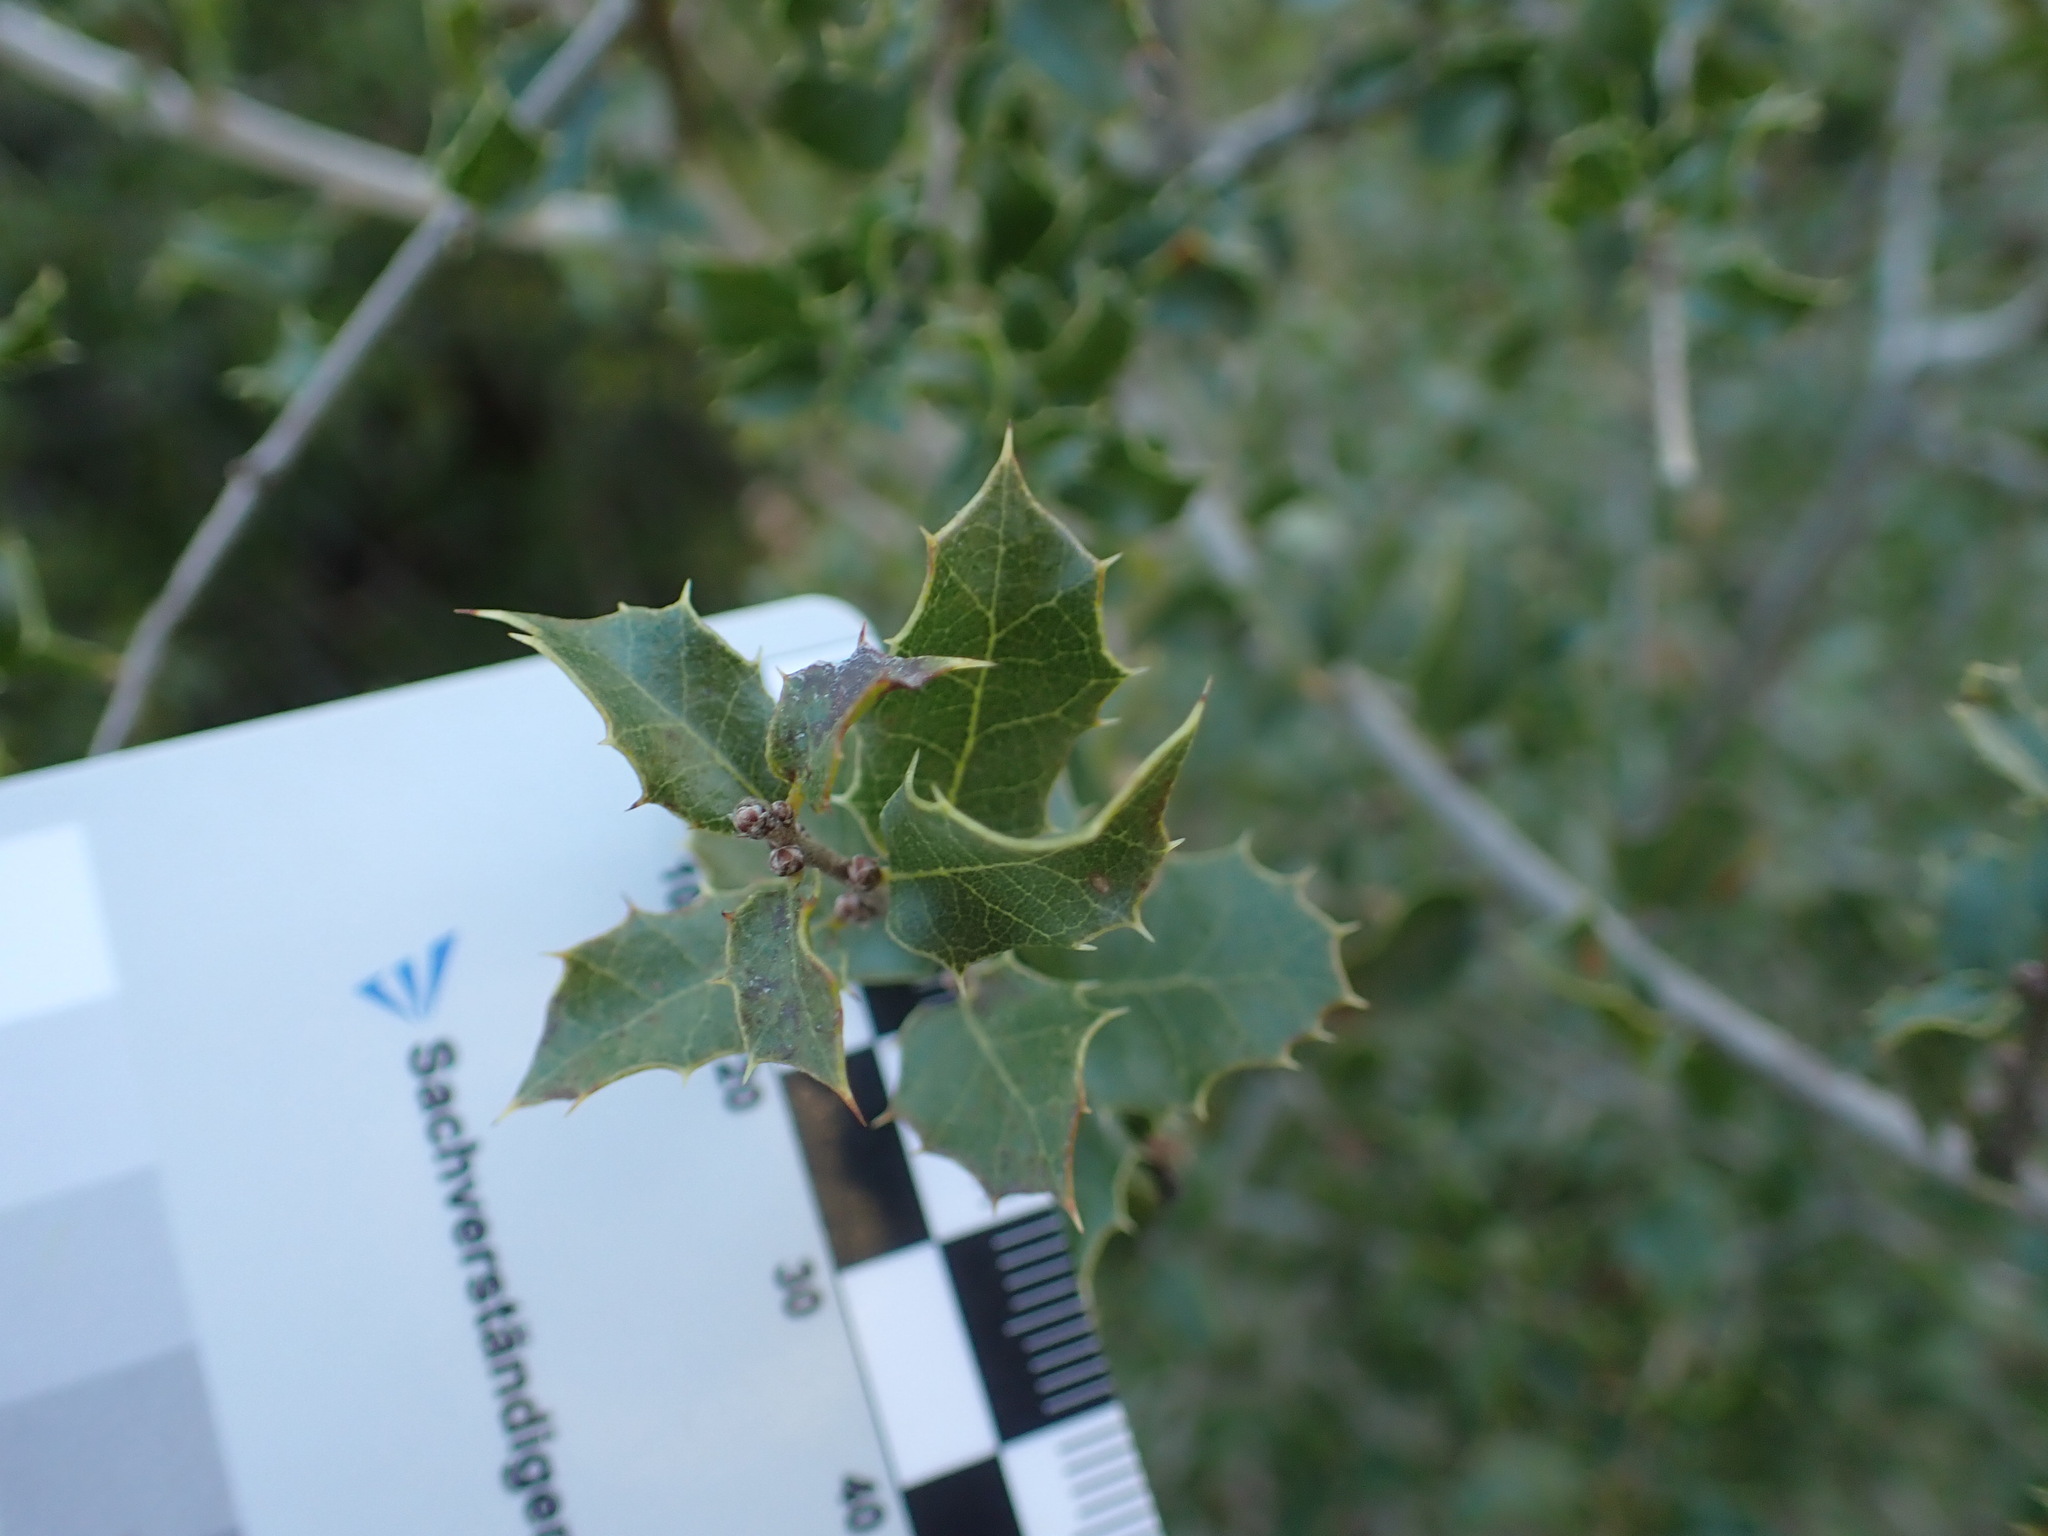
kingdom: Plantae
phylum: Tracheophyta
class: Magnoliopsida
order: Fagales
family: Fagaceae
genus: Quercus
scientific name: Quercus coccifera
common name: Kermes oak
